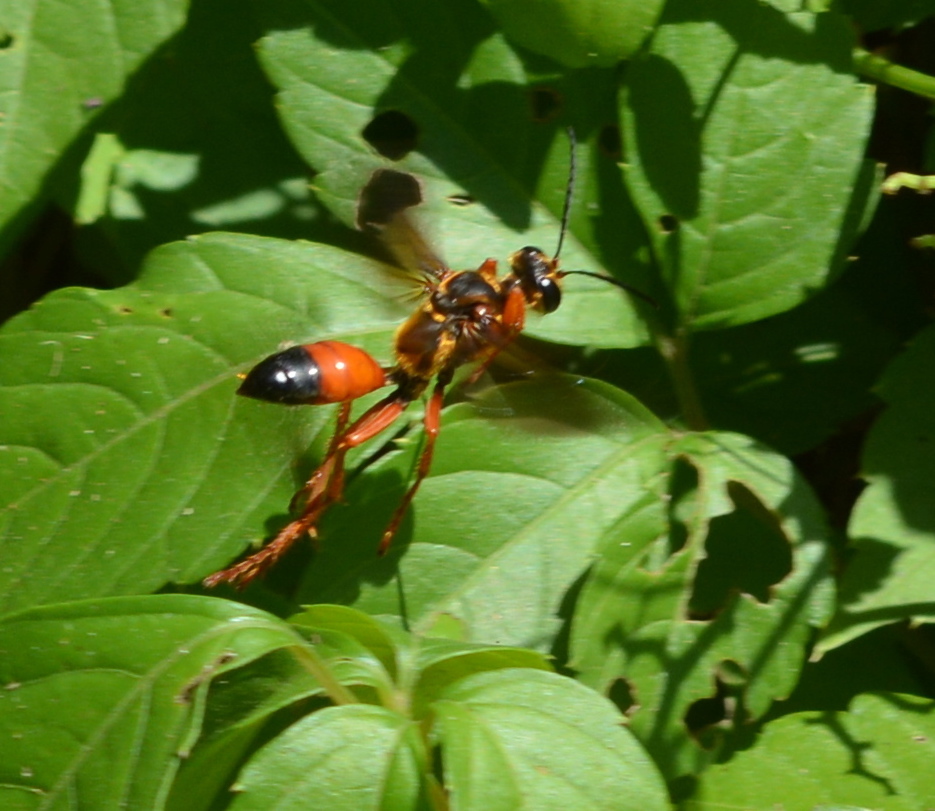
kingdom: Animalia
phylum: Arthropoda
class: Insecta
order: Hymenoptera
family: Sphecidae
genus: Sphex
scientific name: Sphex ichneumoneus
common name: Great golden digger wasp
